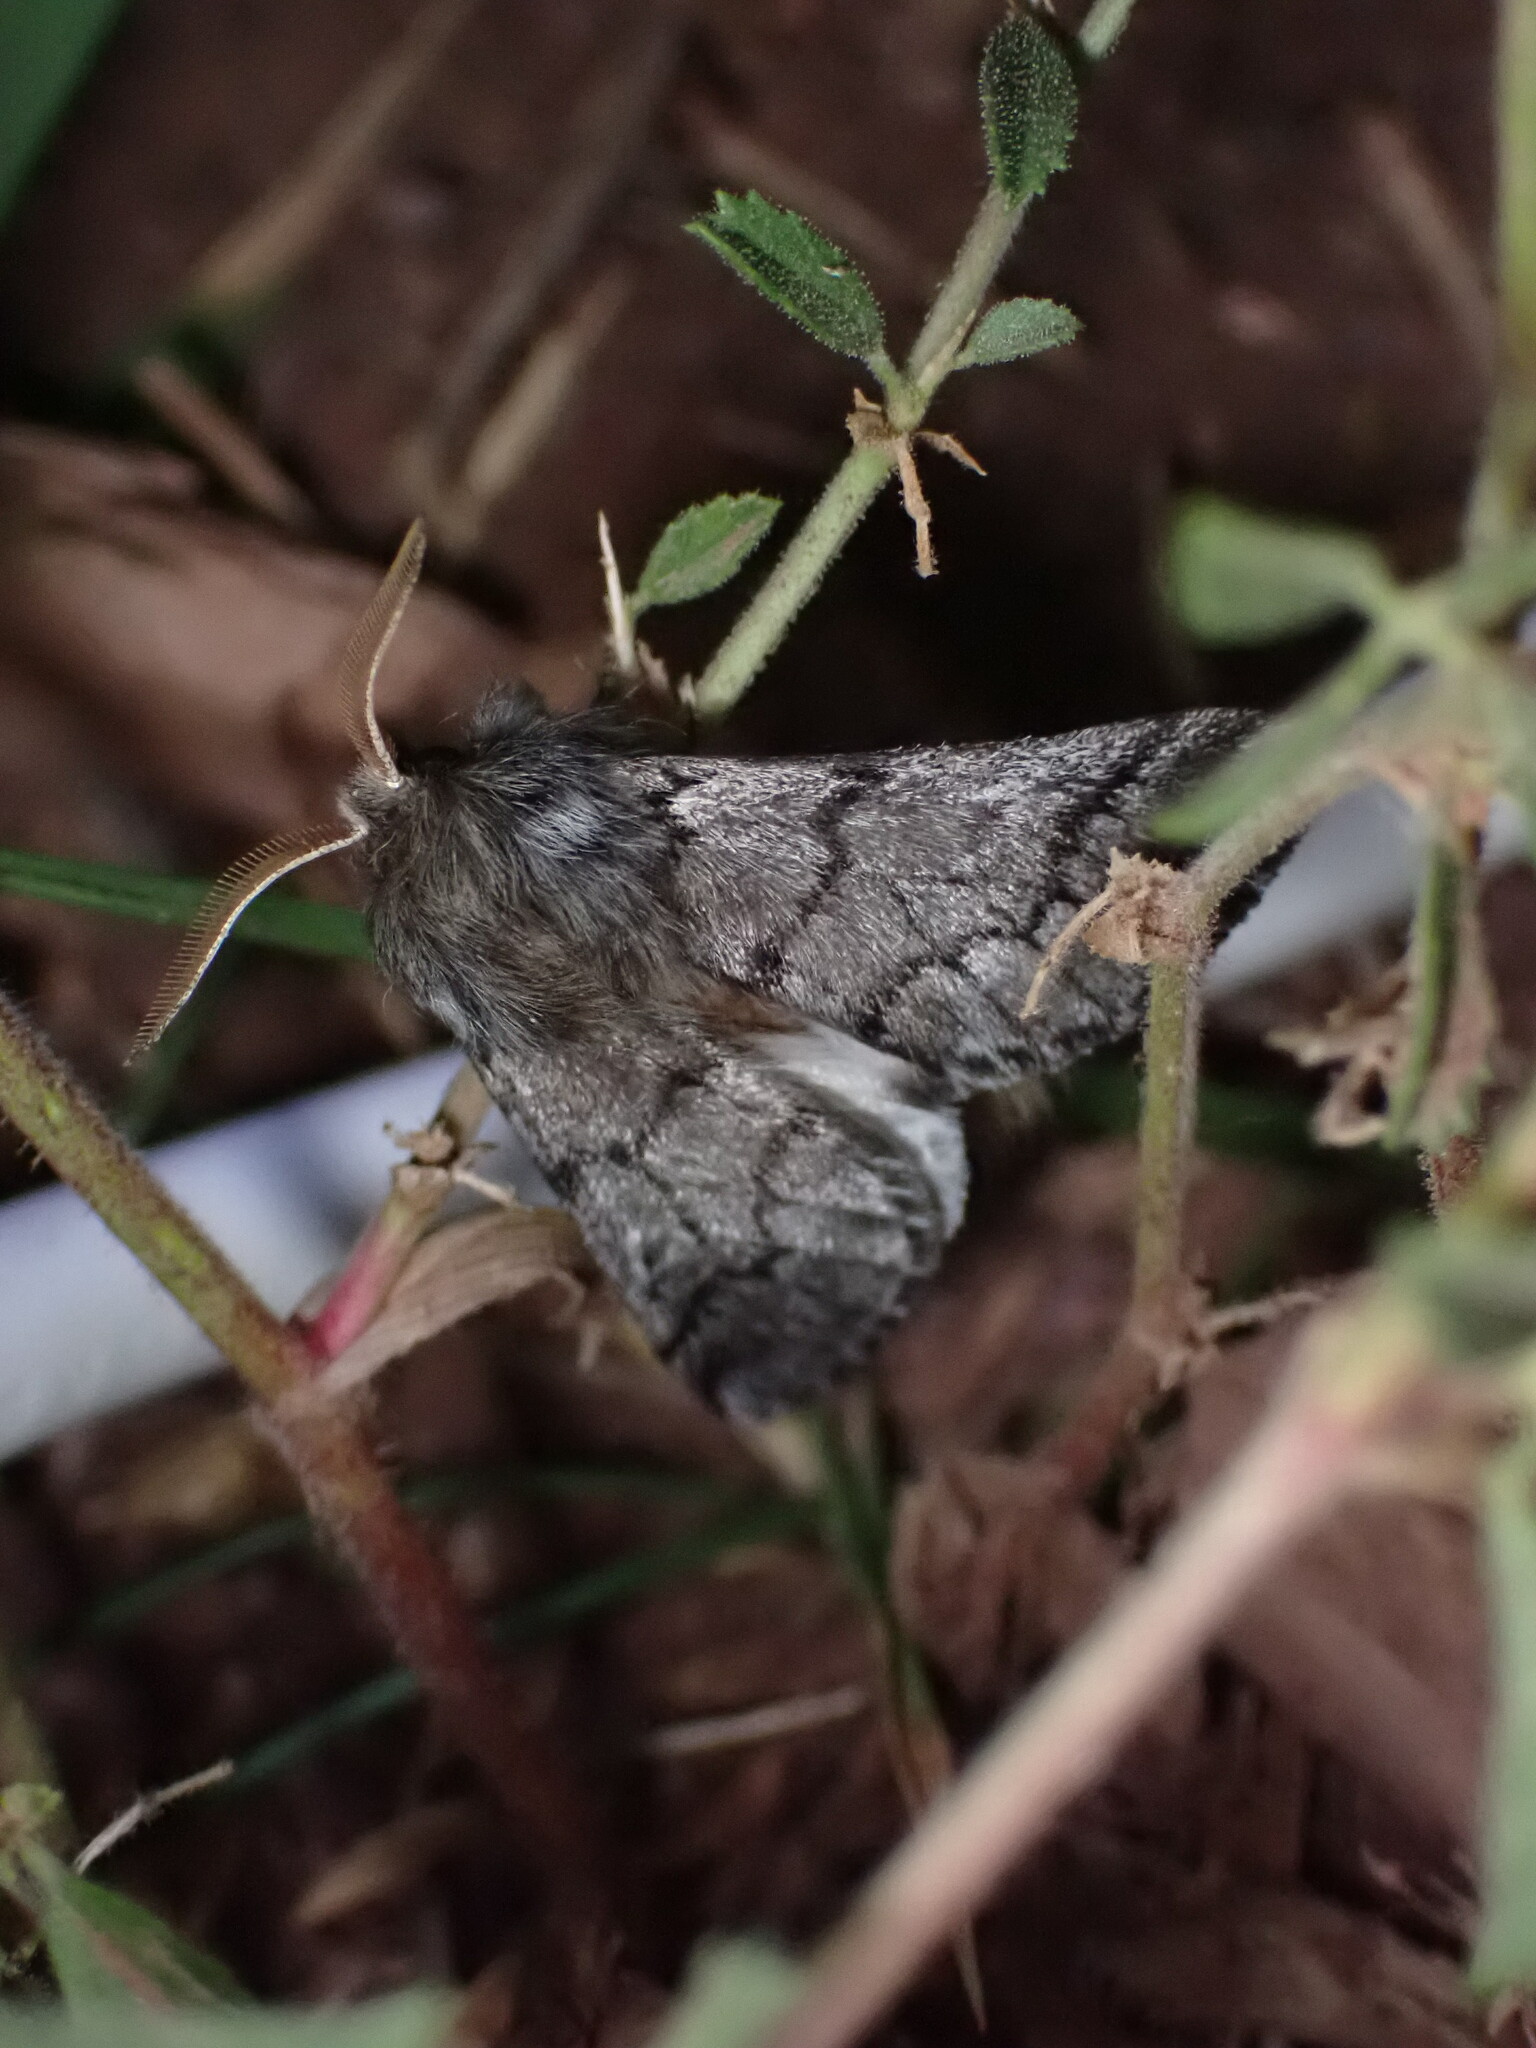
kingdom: Animalia
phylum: Arthropoda
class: Insecta
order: Lepidoptera
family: Notodontidae
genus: Thaumetopoea
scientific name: Thaumetopoea pityocampa
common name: Pine processionary
